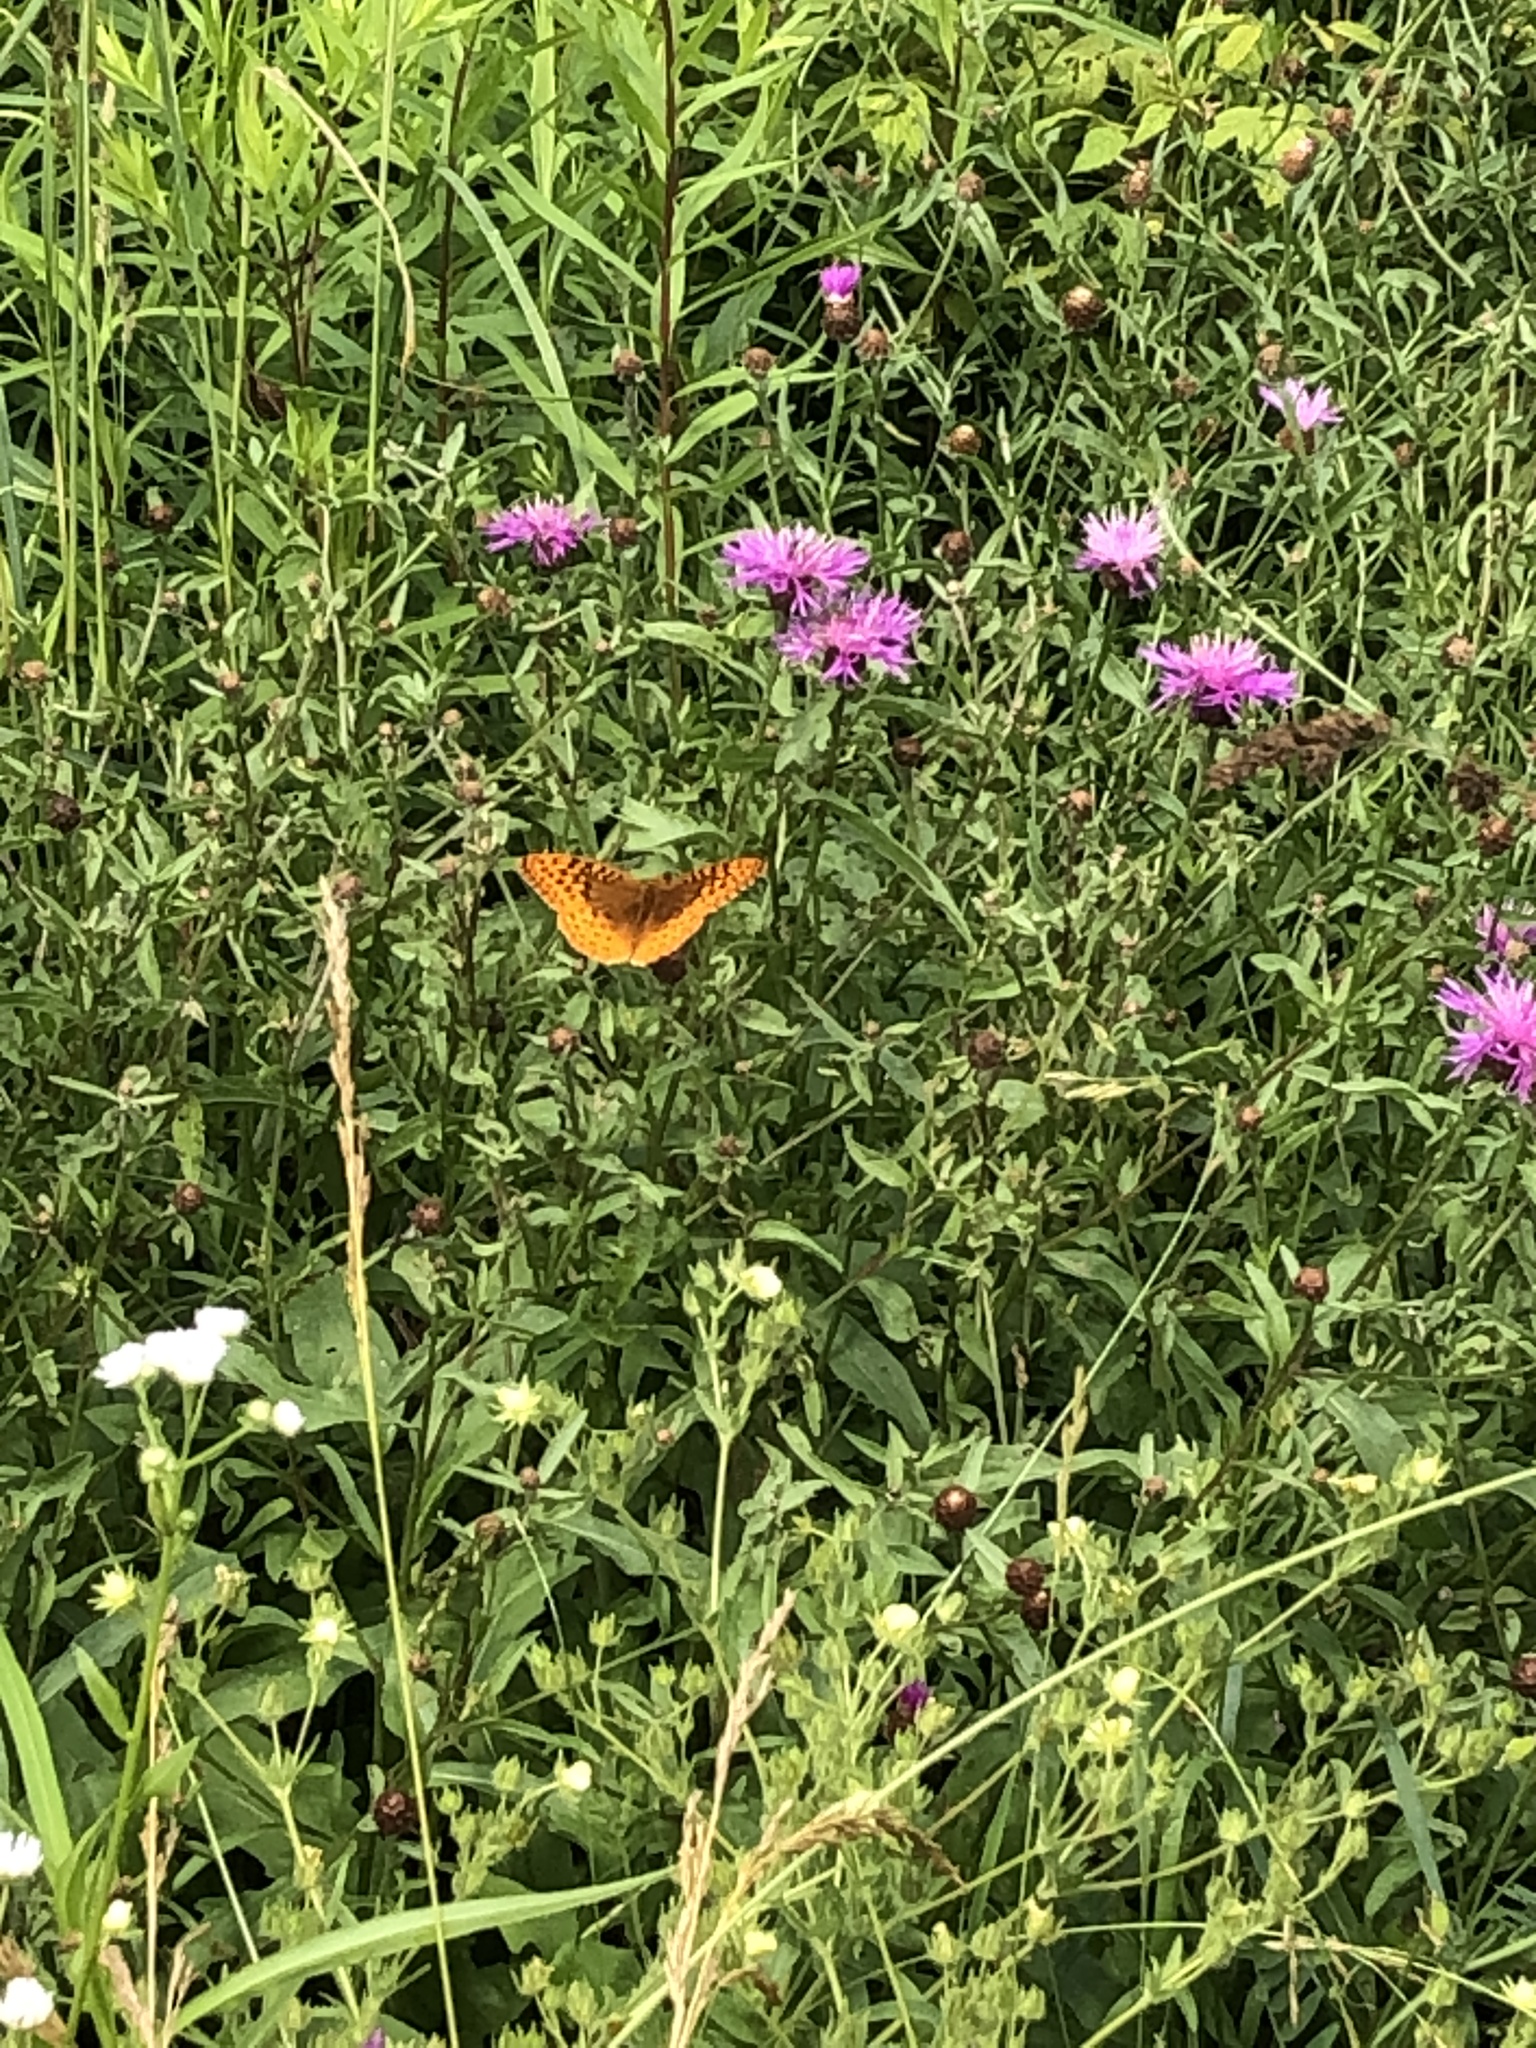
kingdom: Animalia
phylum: Arthropoda
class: Insecta
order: Lepidoptera
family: Nymphalidae
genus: Speyeria
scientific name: Speyeria cybele
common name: Great spangled fritillary
